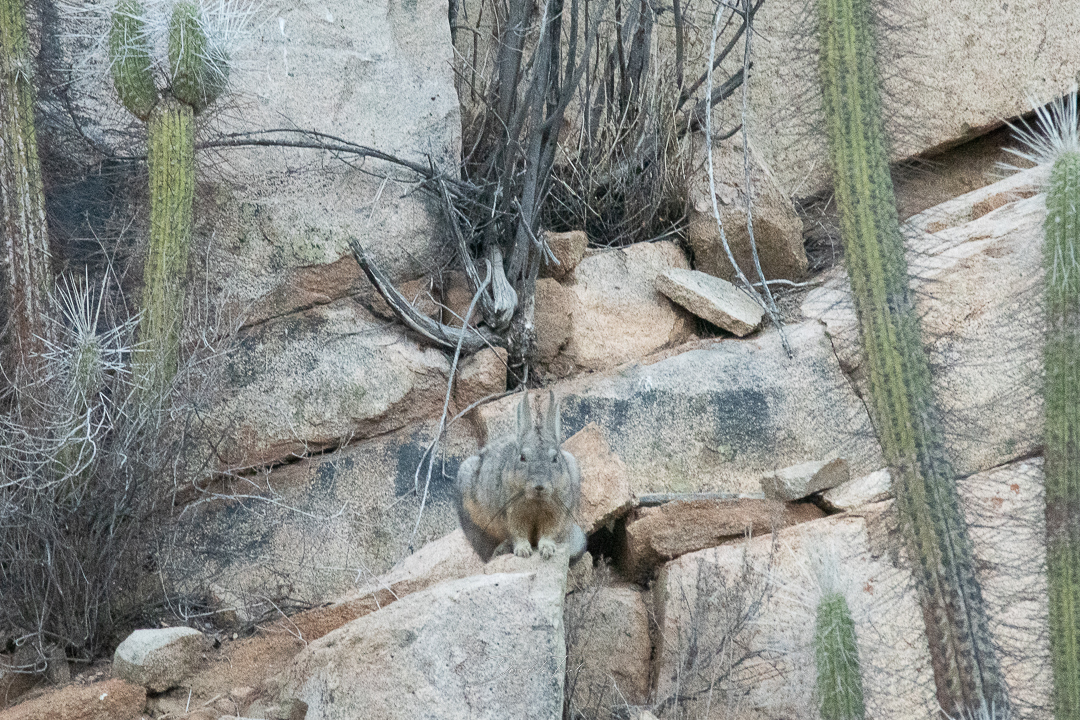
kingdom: Animalia
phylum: Chordata
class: Mammalia
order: Rodentia
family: Chinchillidae
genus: Lagidium
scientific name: Lagidium viscacia
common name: Southern viscacha
